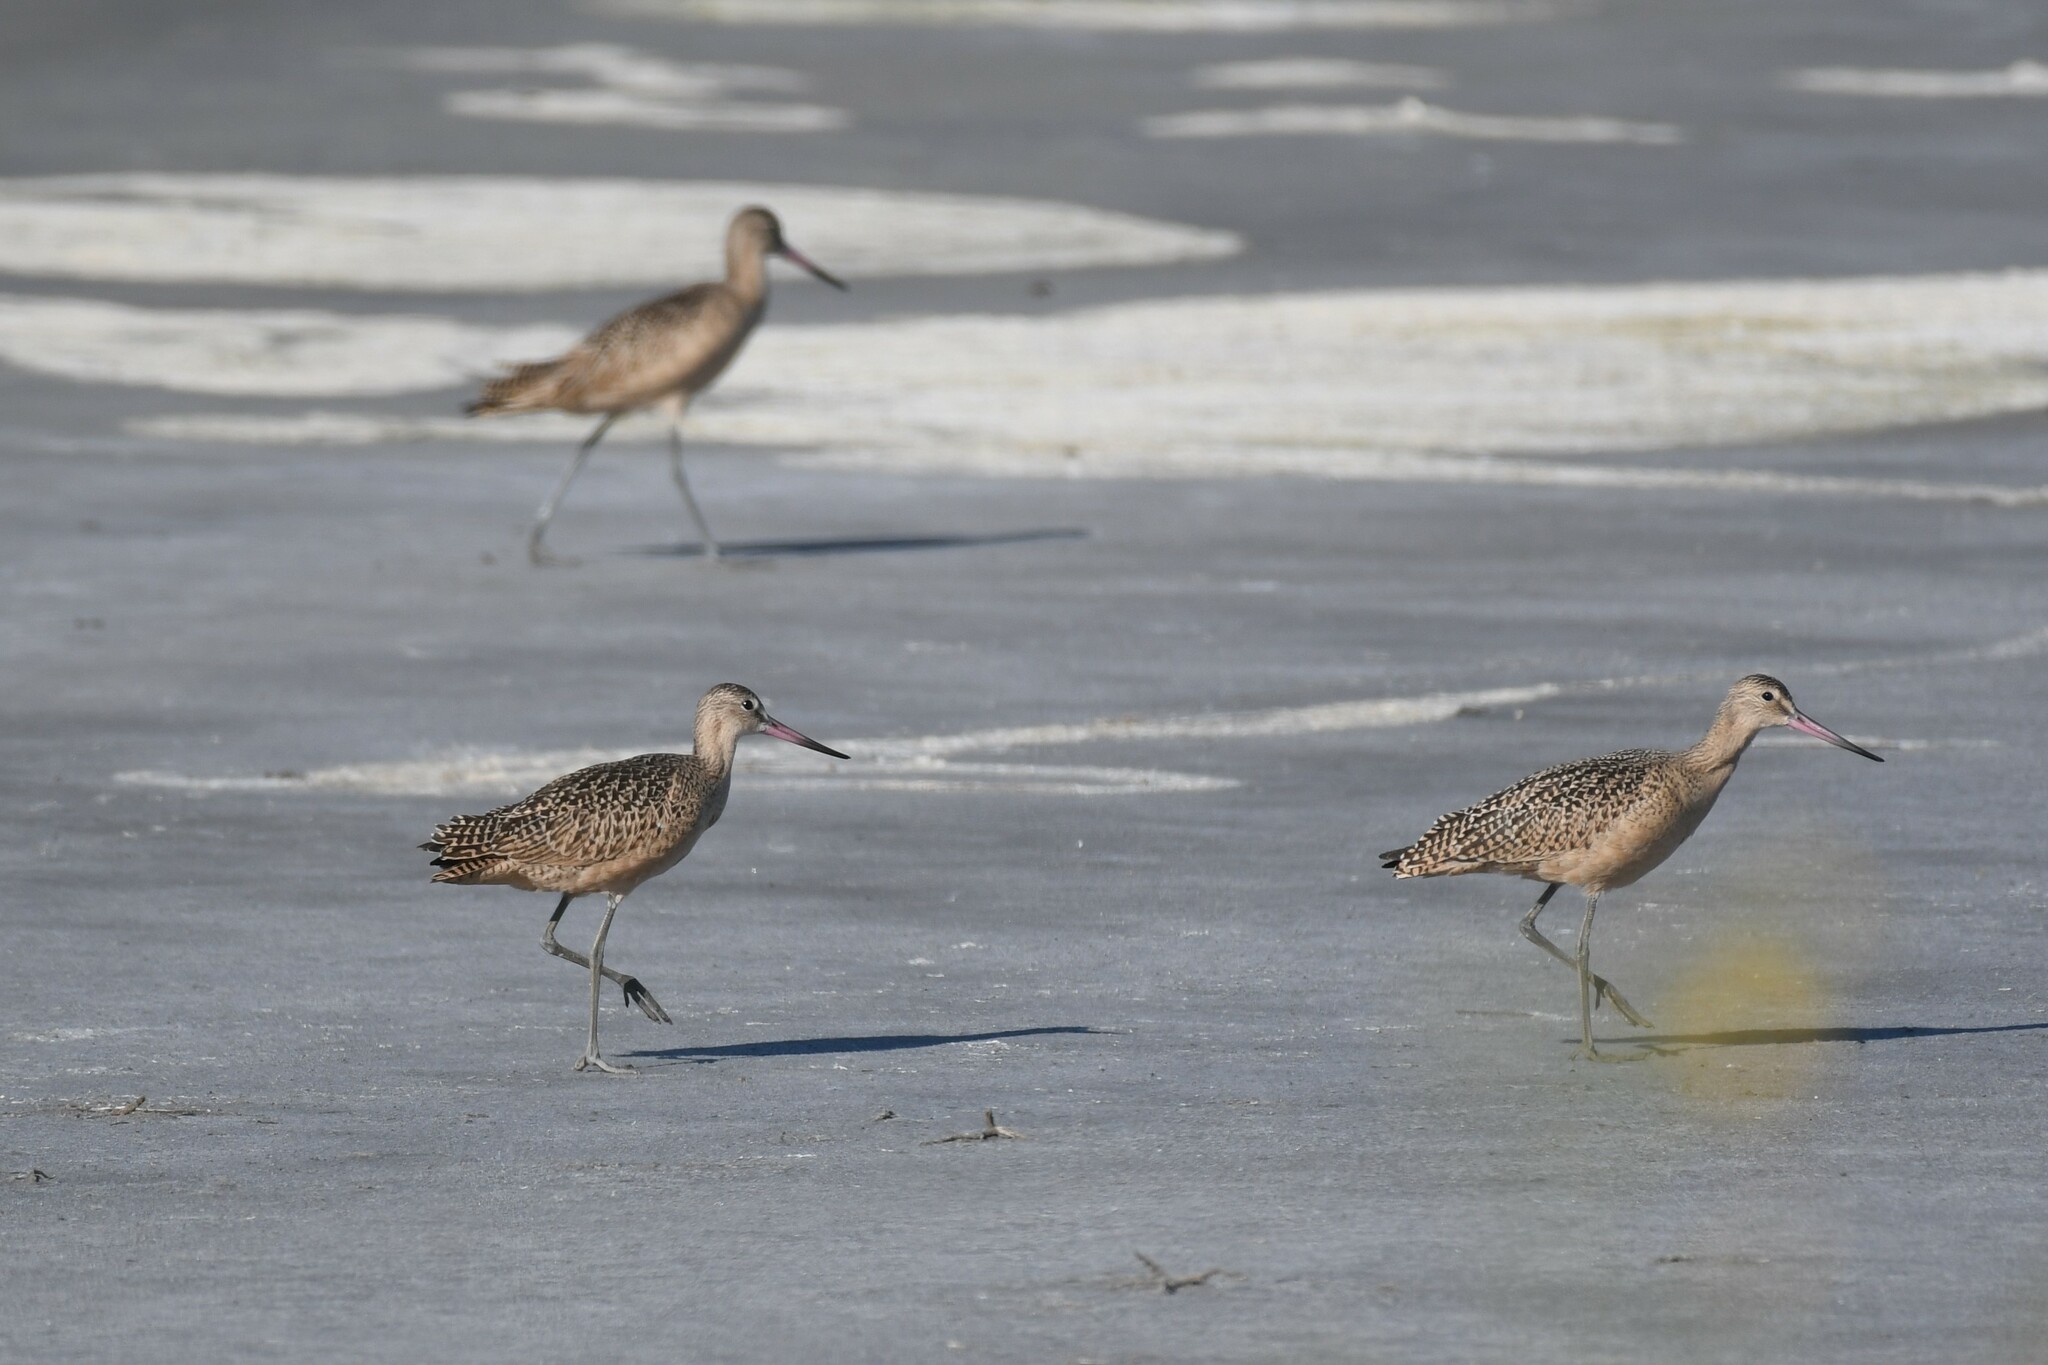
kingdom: Animalia
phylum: Chordata
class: Aves
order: Charadriiformes
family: Scolopacidae
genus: Limosa
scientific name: Limosa fedoa
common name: Marbled godwit
